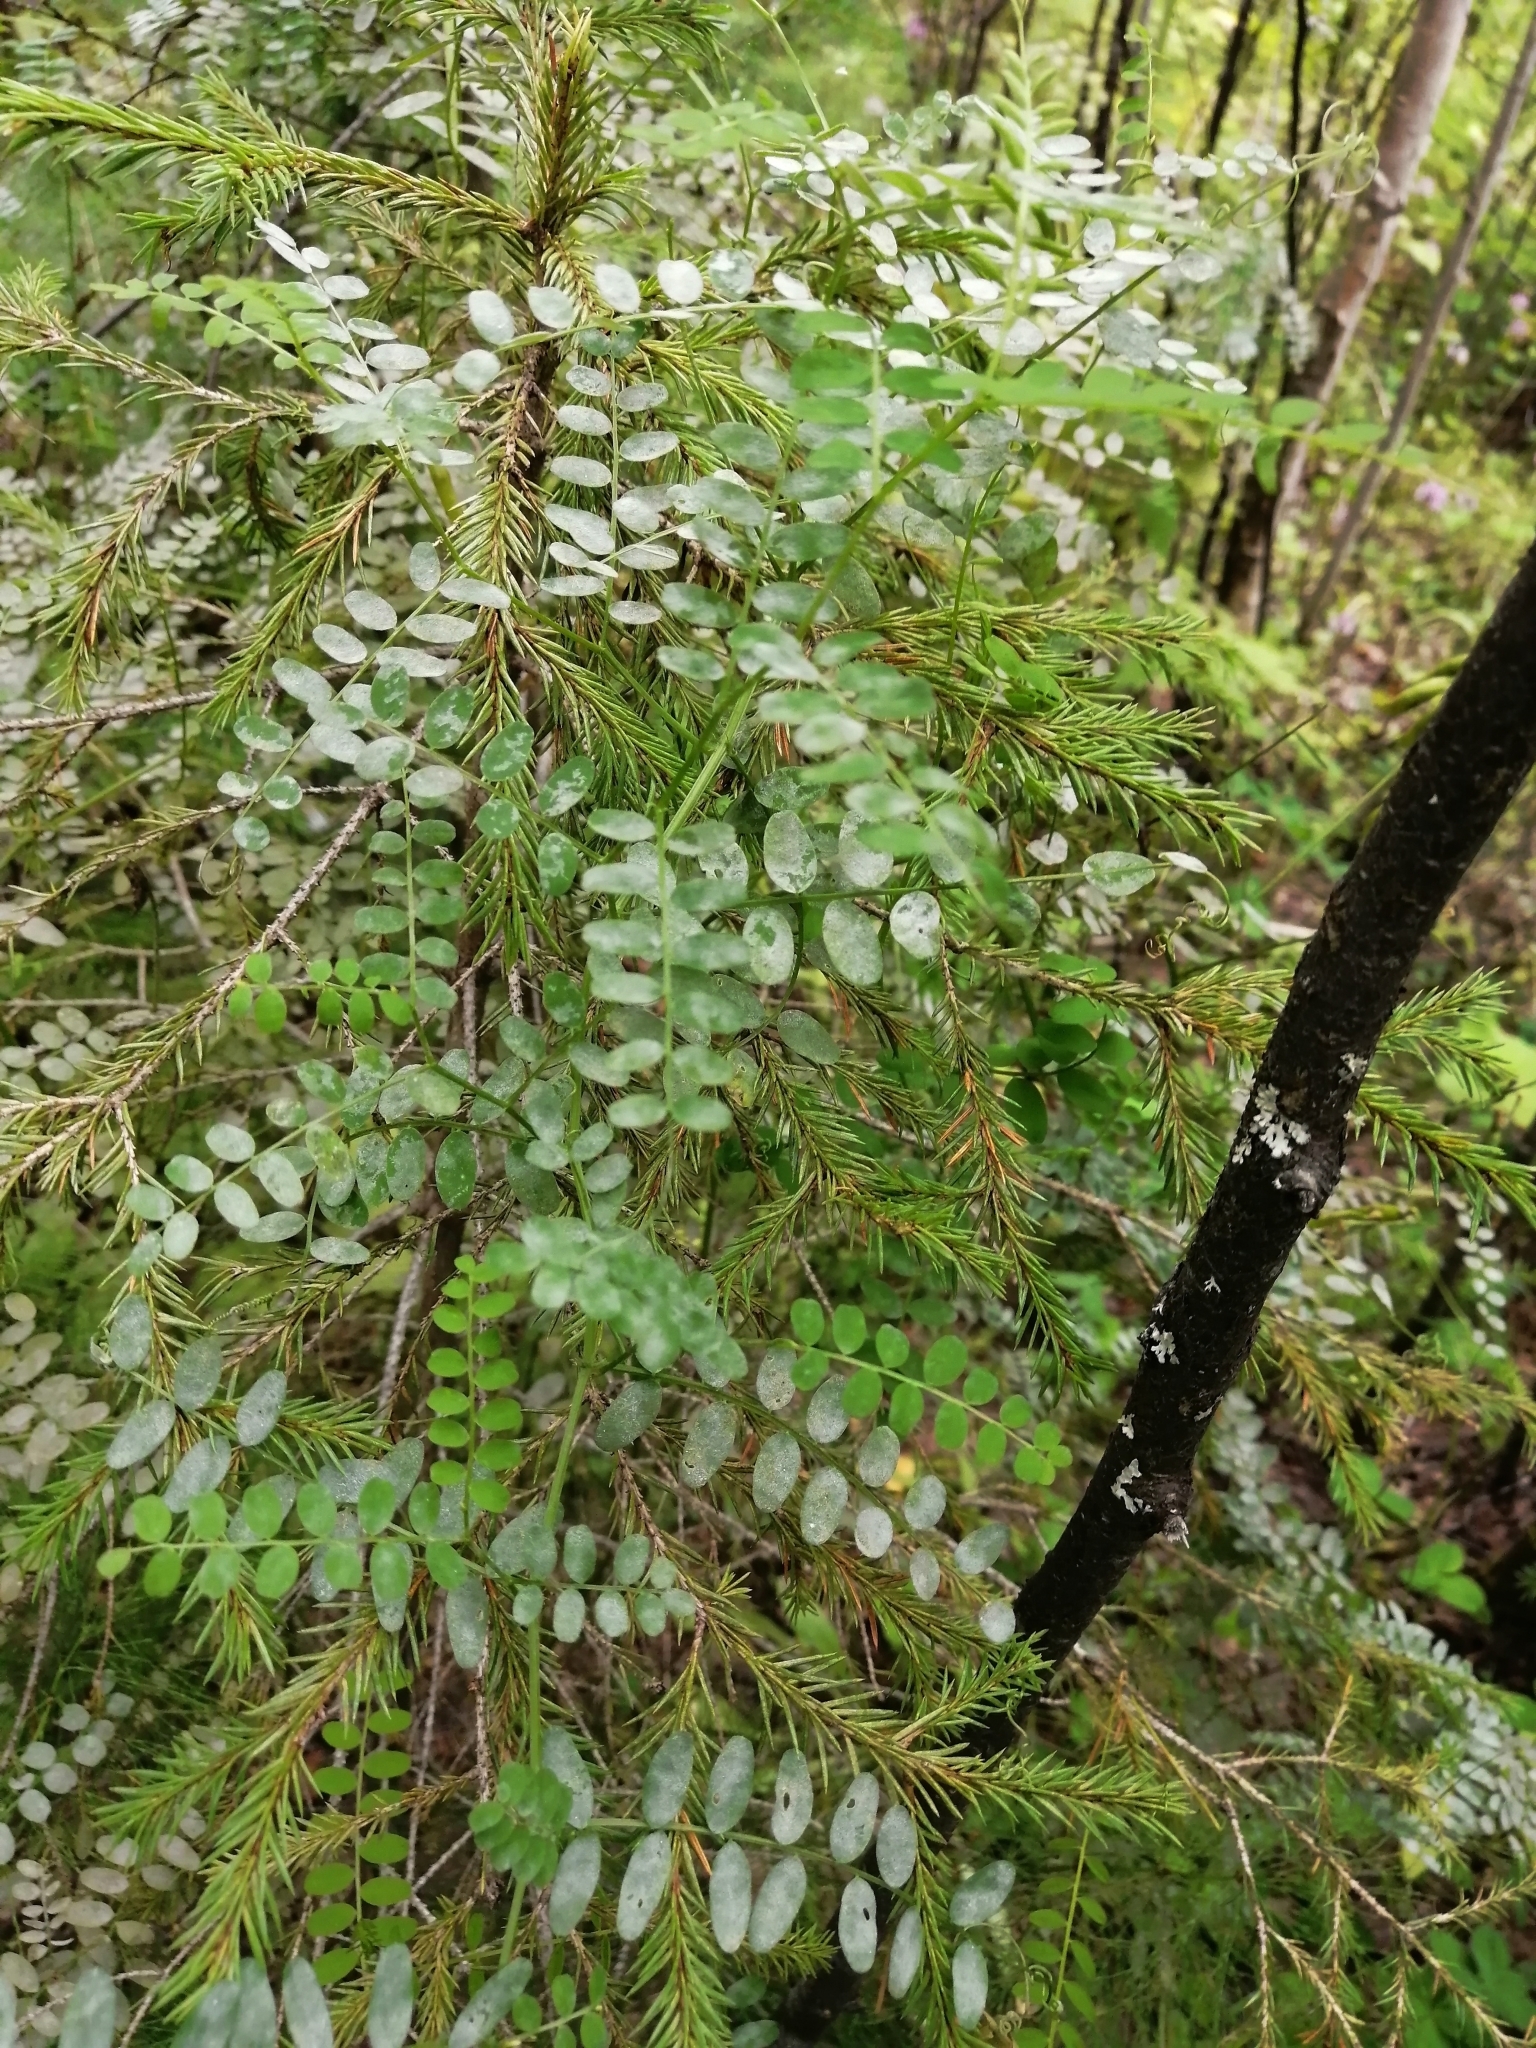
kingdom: Plantae
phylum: Tracheophyta
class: Magnoliopsida
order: Fabales
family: Fabaceae
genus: Vicia
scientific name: Vicia sylvatica
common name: Wood vetch
